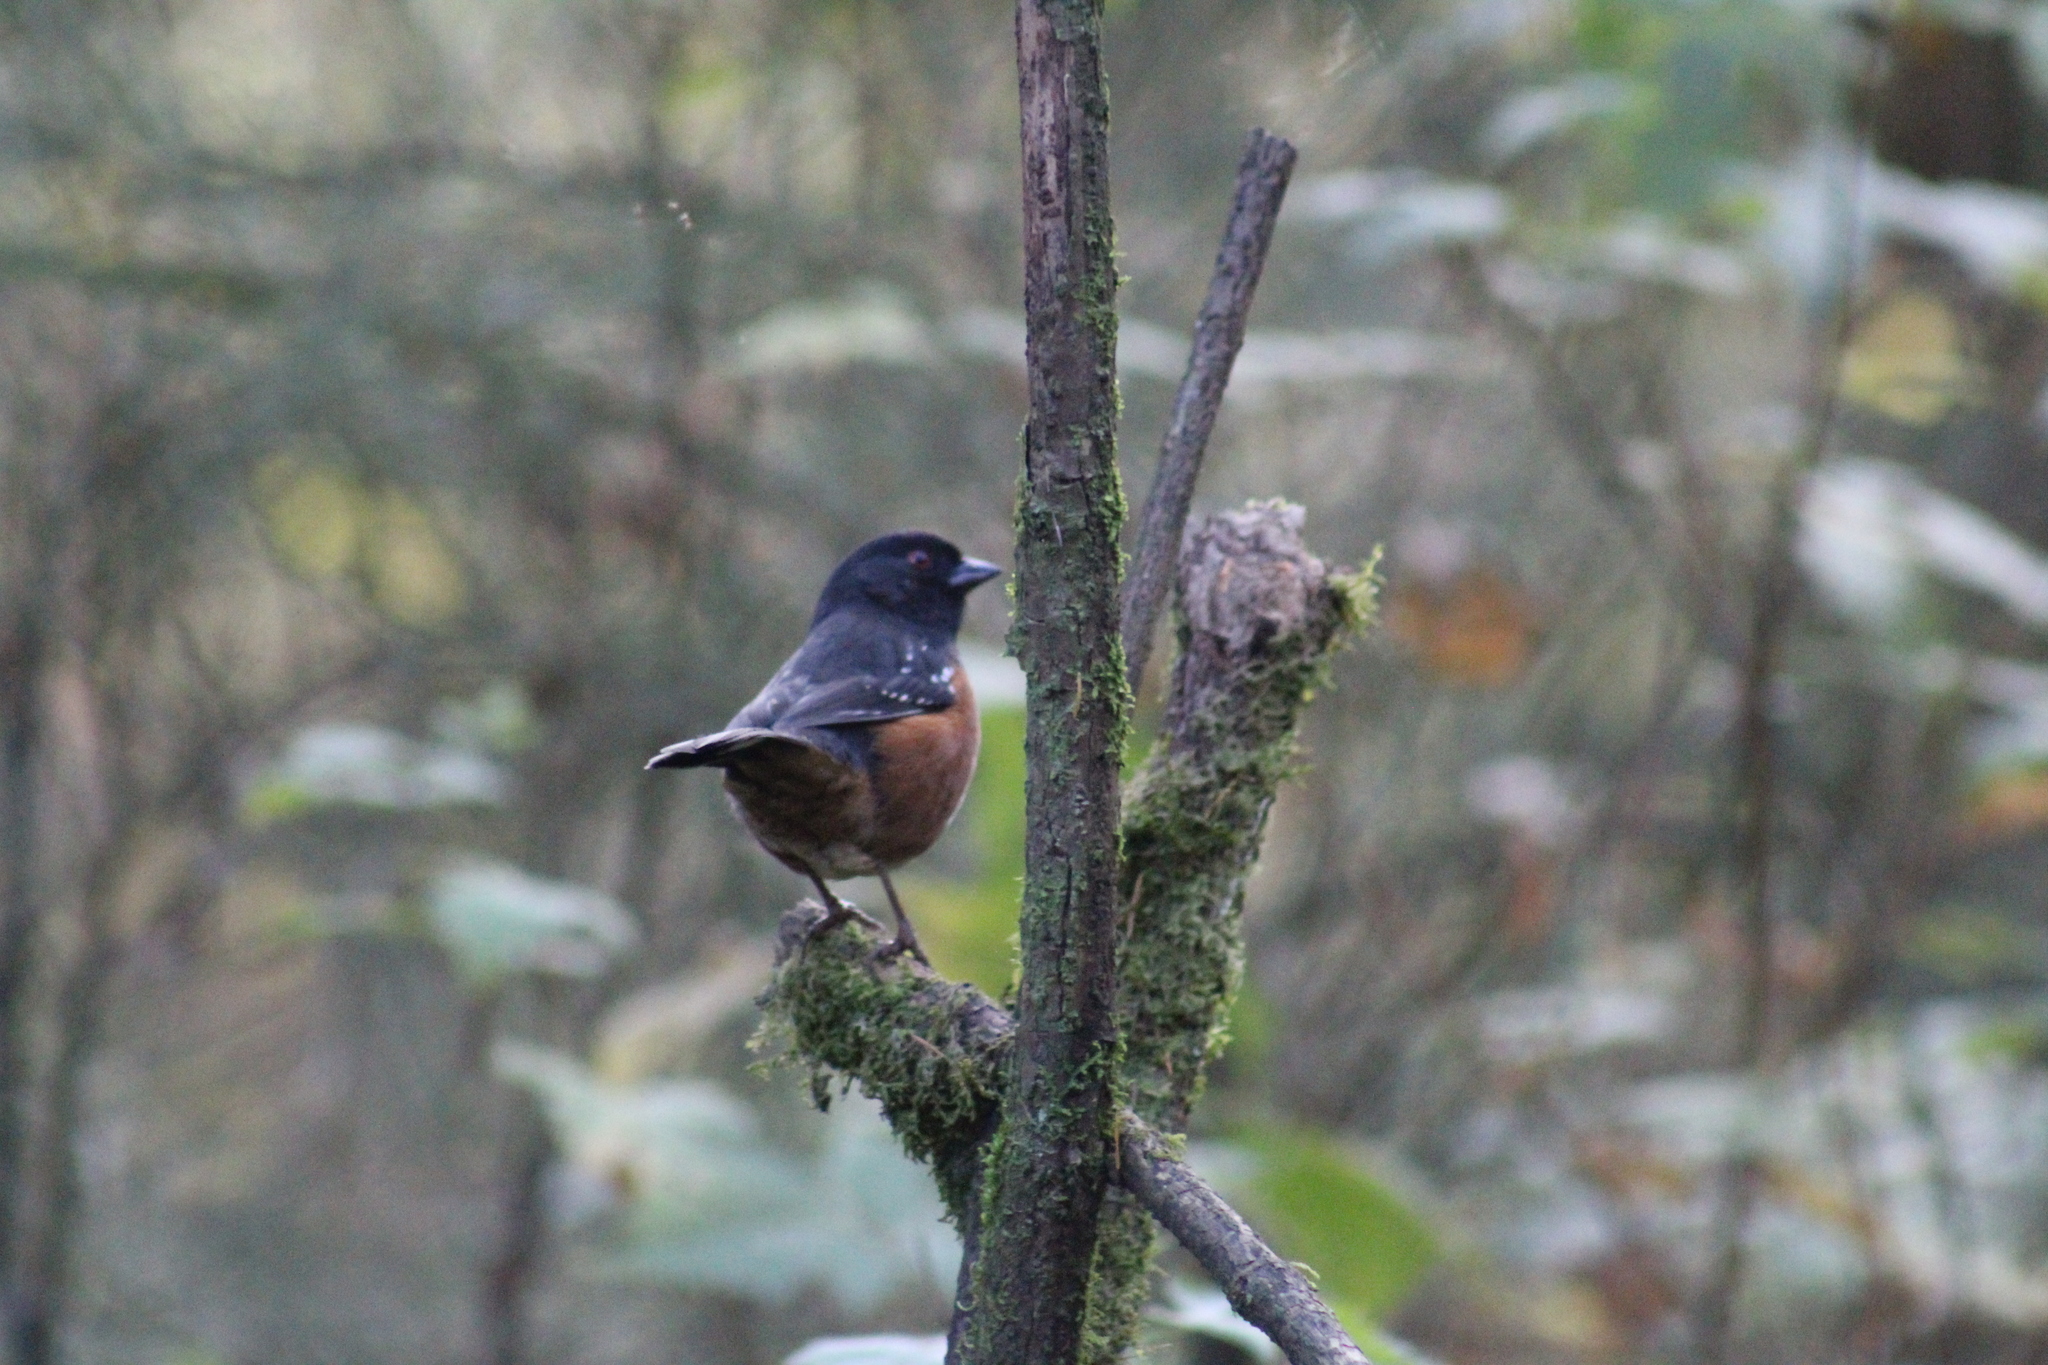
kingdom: Animalia
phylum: Chordata
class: Aves
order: Passeriformes
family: Passerellidae
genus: Pipilo
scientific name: Pipilo maculatus
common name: Spotted towhee
